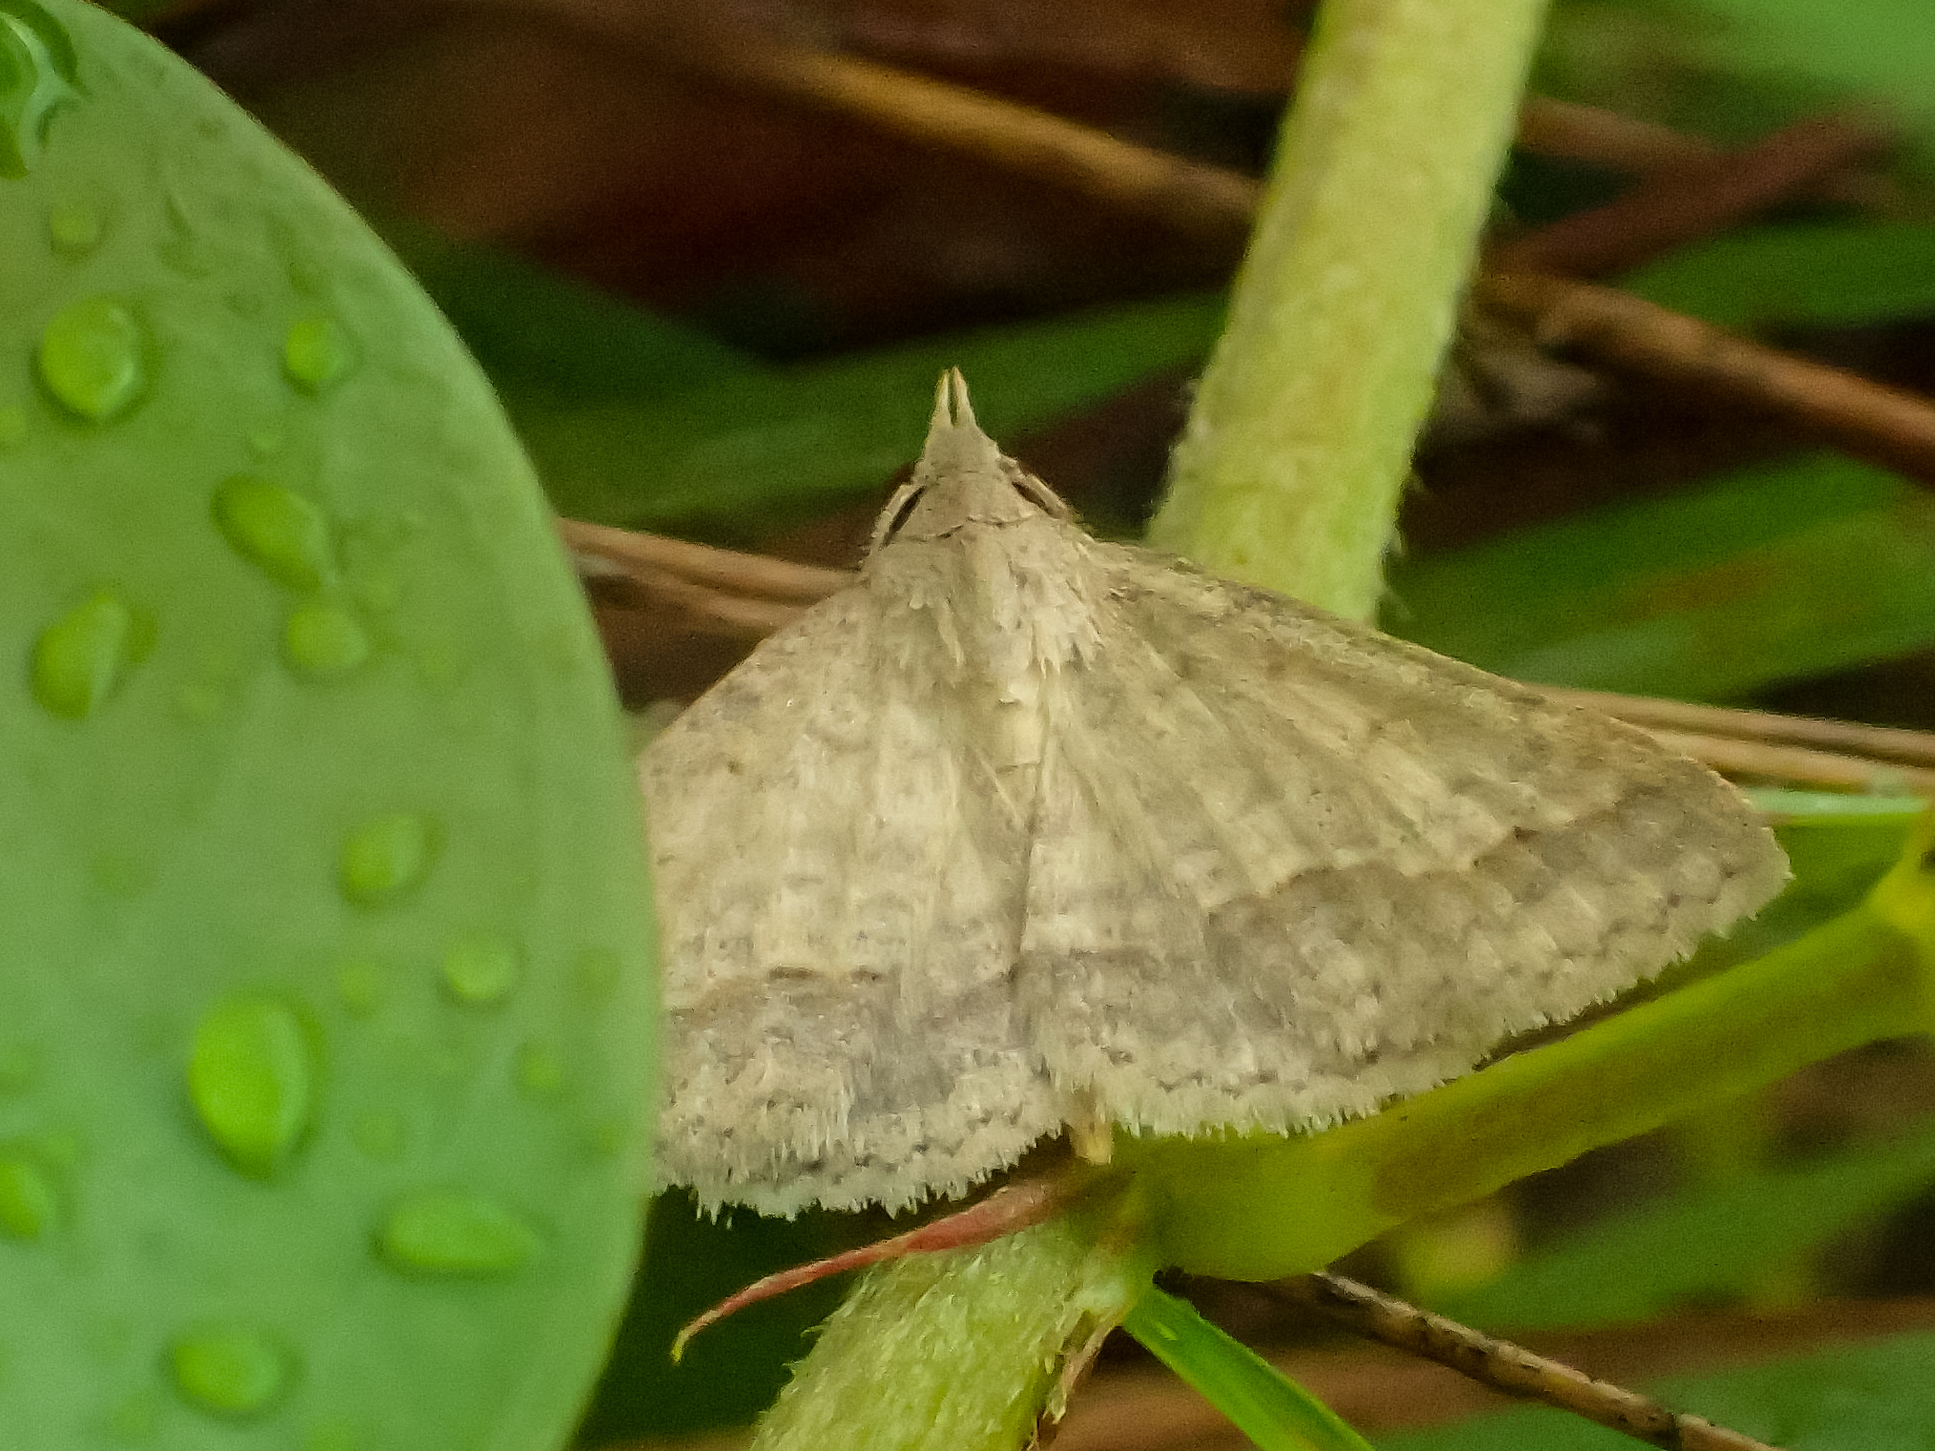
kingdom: Animalia
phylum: Arthropoda
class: Insecta
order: Lepidoptera
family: Erebidae
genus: Gesonia
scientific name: Gesonia obeditalis
